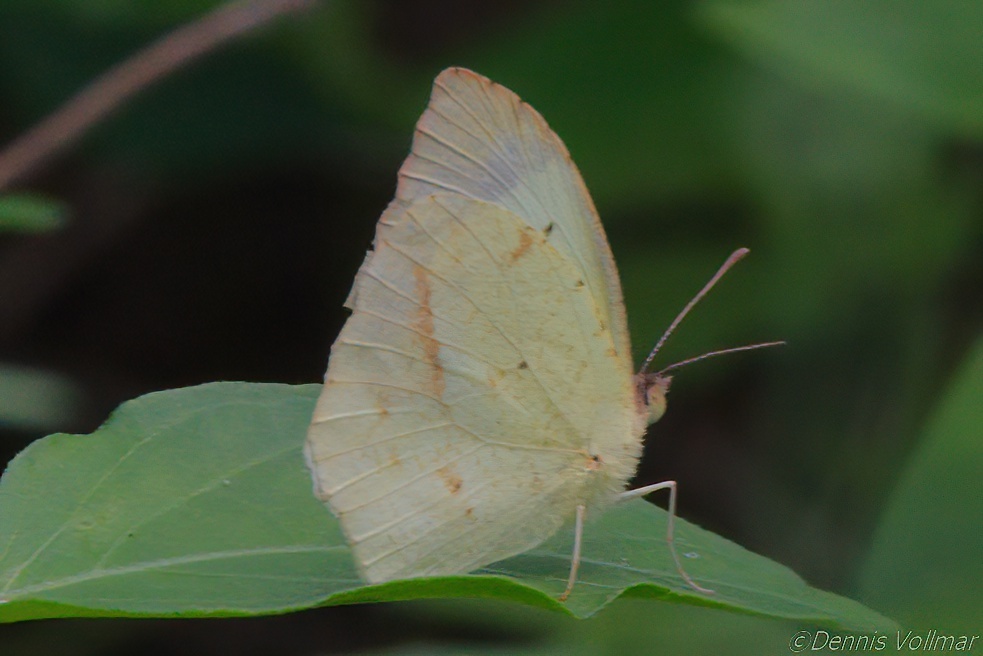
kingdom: Animalia
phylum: Arthropoda
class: Insecta
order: Lepidoptera
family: Pieridae
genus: Abaeis
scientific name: Abaeis mexicana
